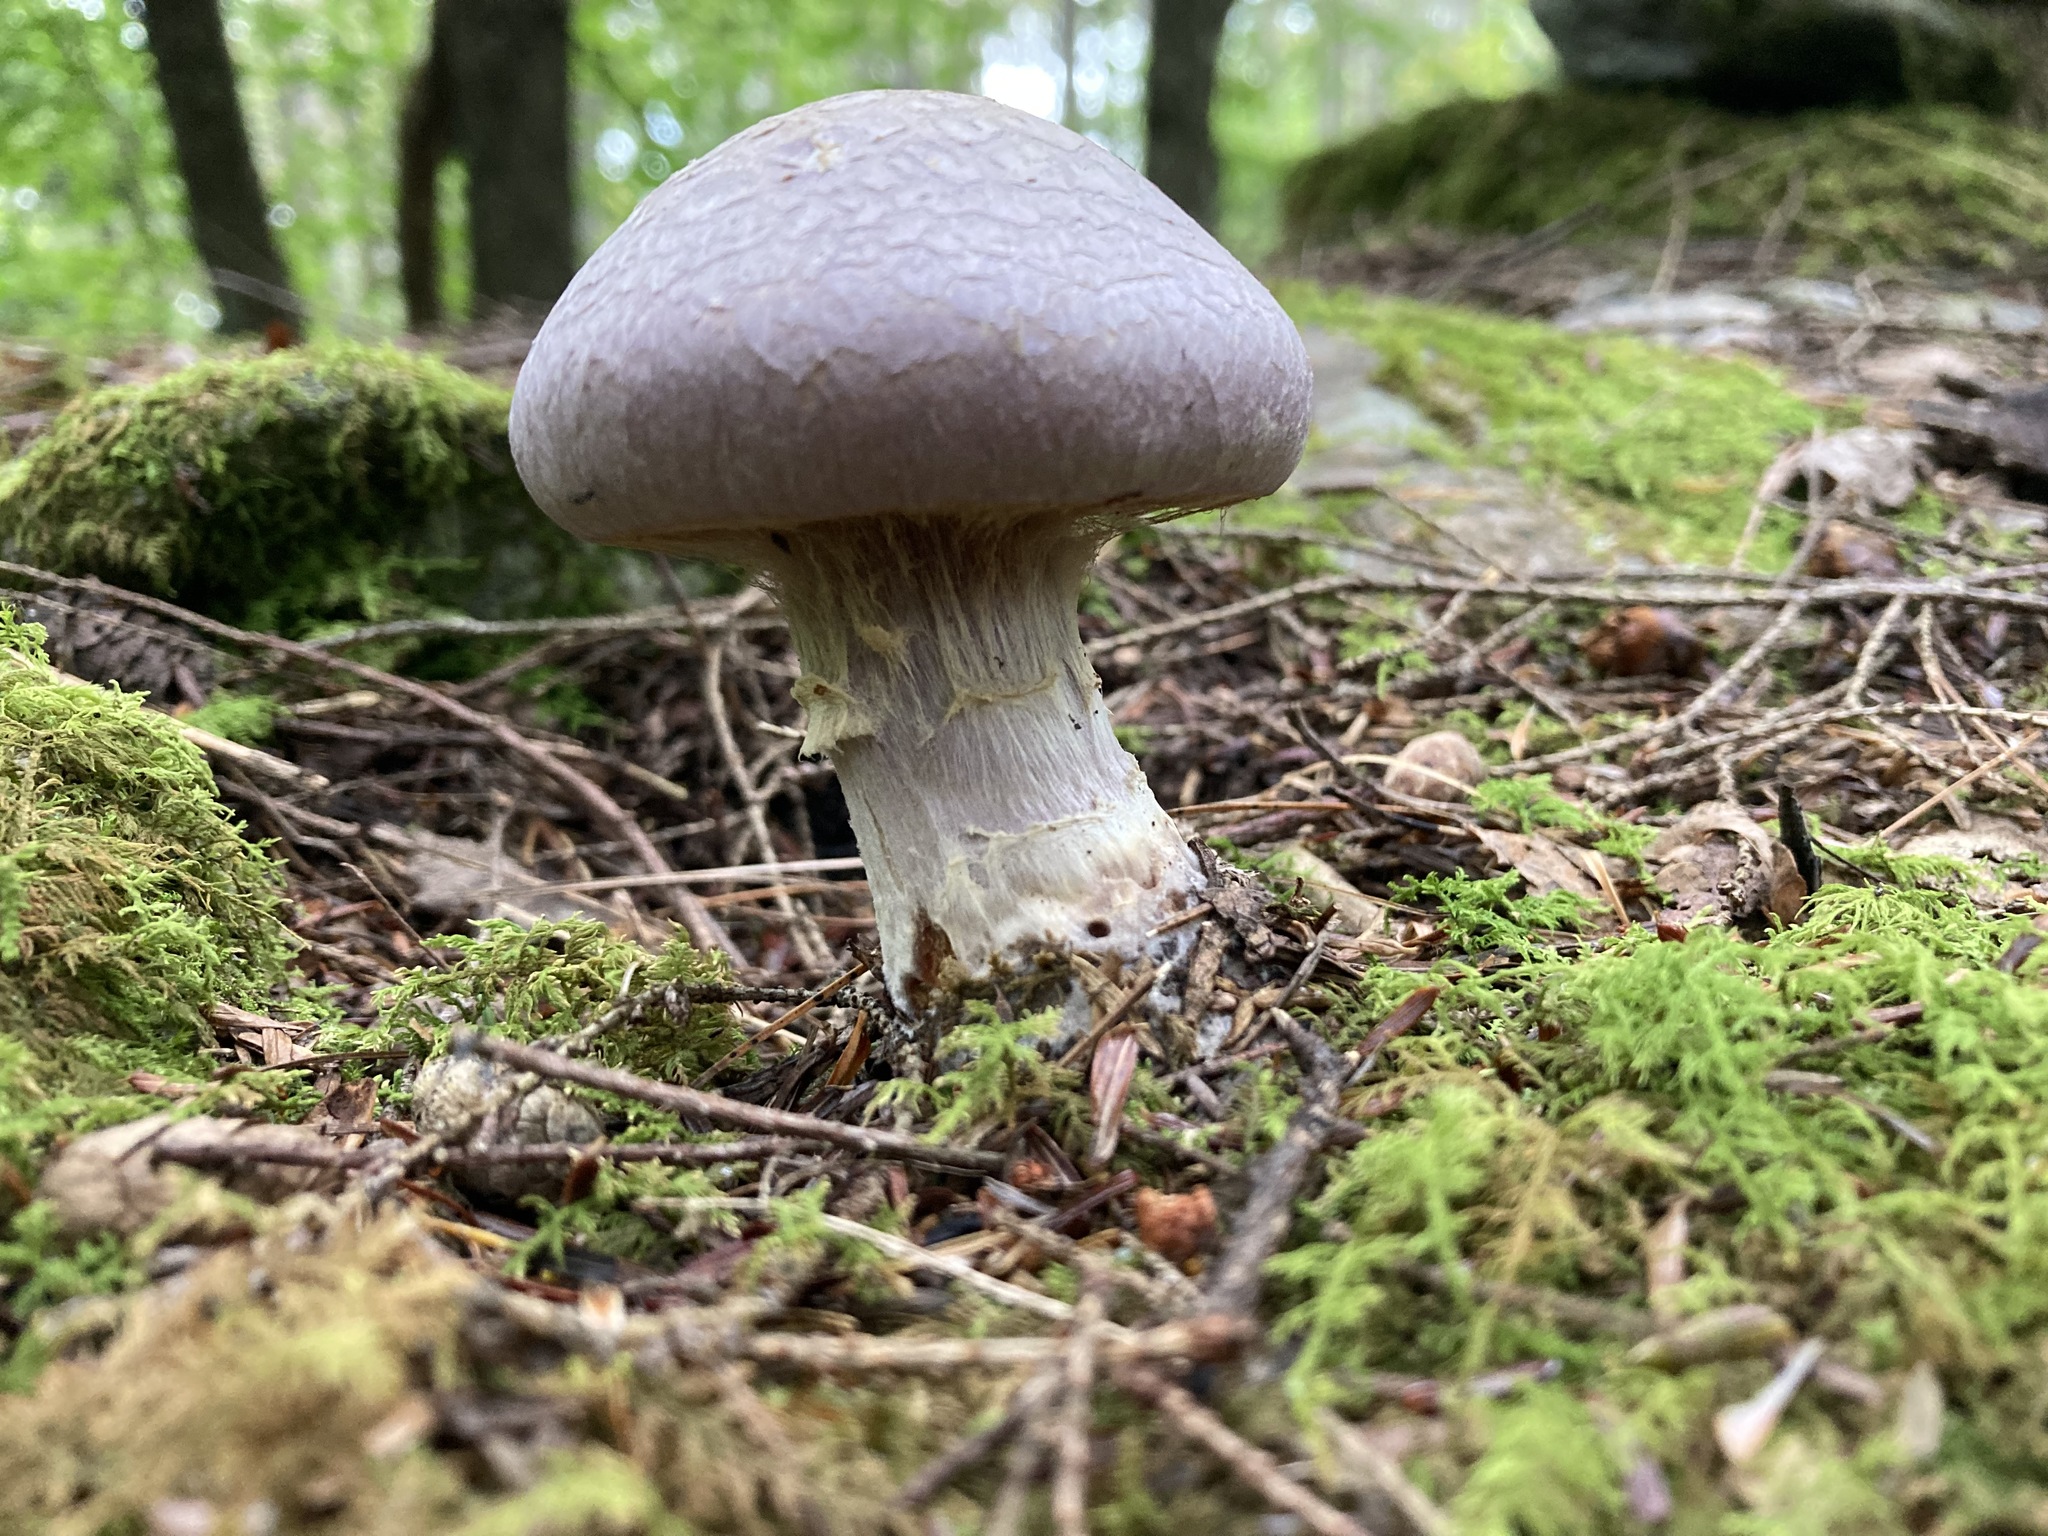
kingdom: Fungi
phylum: Basidiomycota
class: Agaricomycetes
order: Agaricales
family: Cortinariaceae
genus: Cortinarius
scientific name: Cortinarius traganus
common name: Gassy webcap
